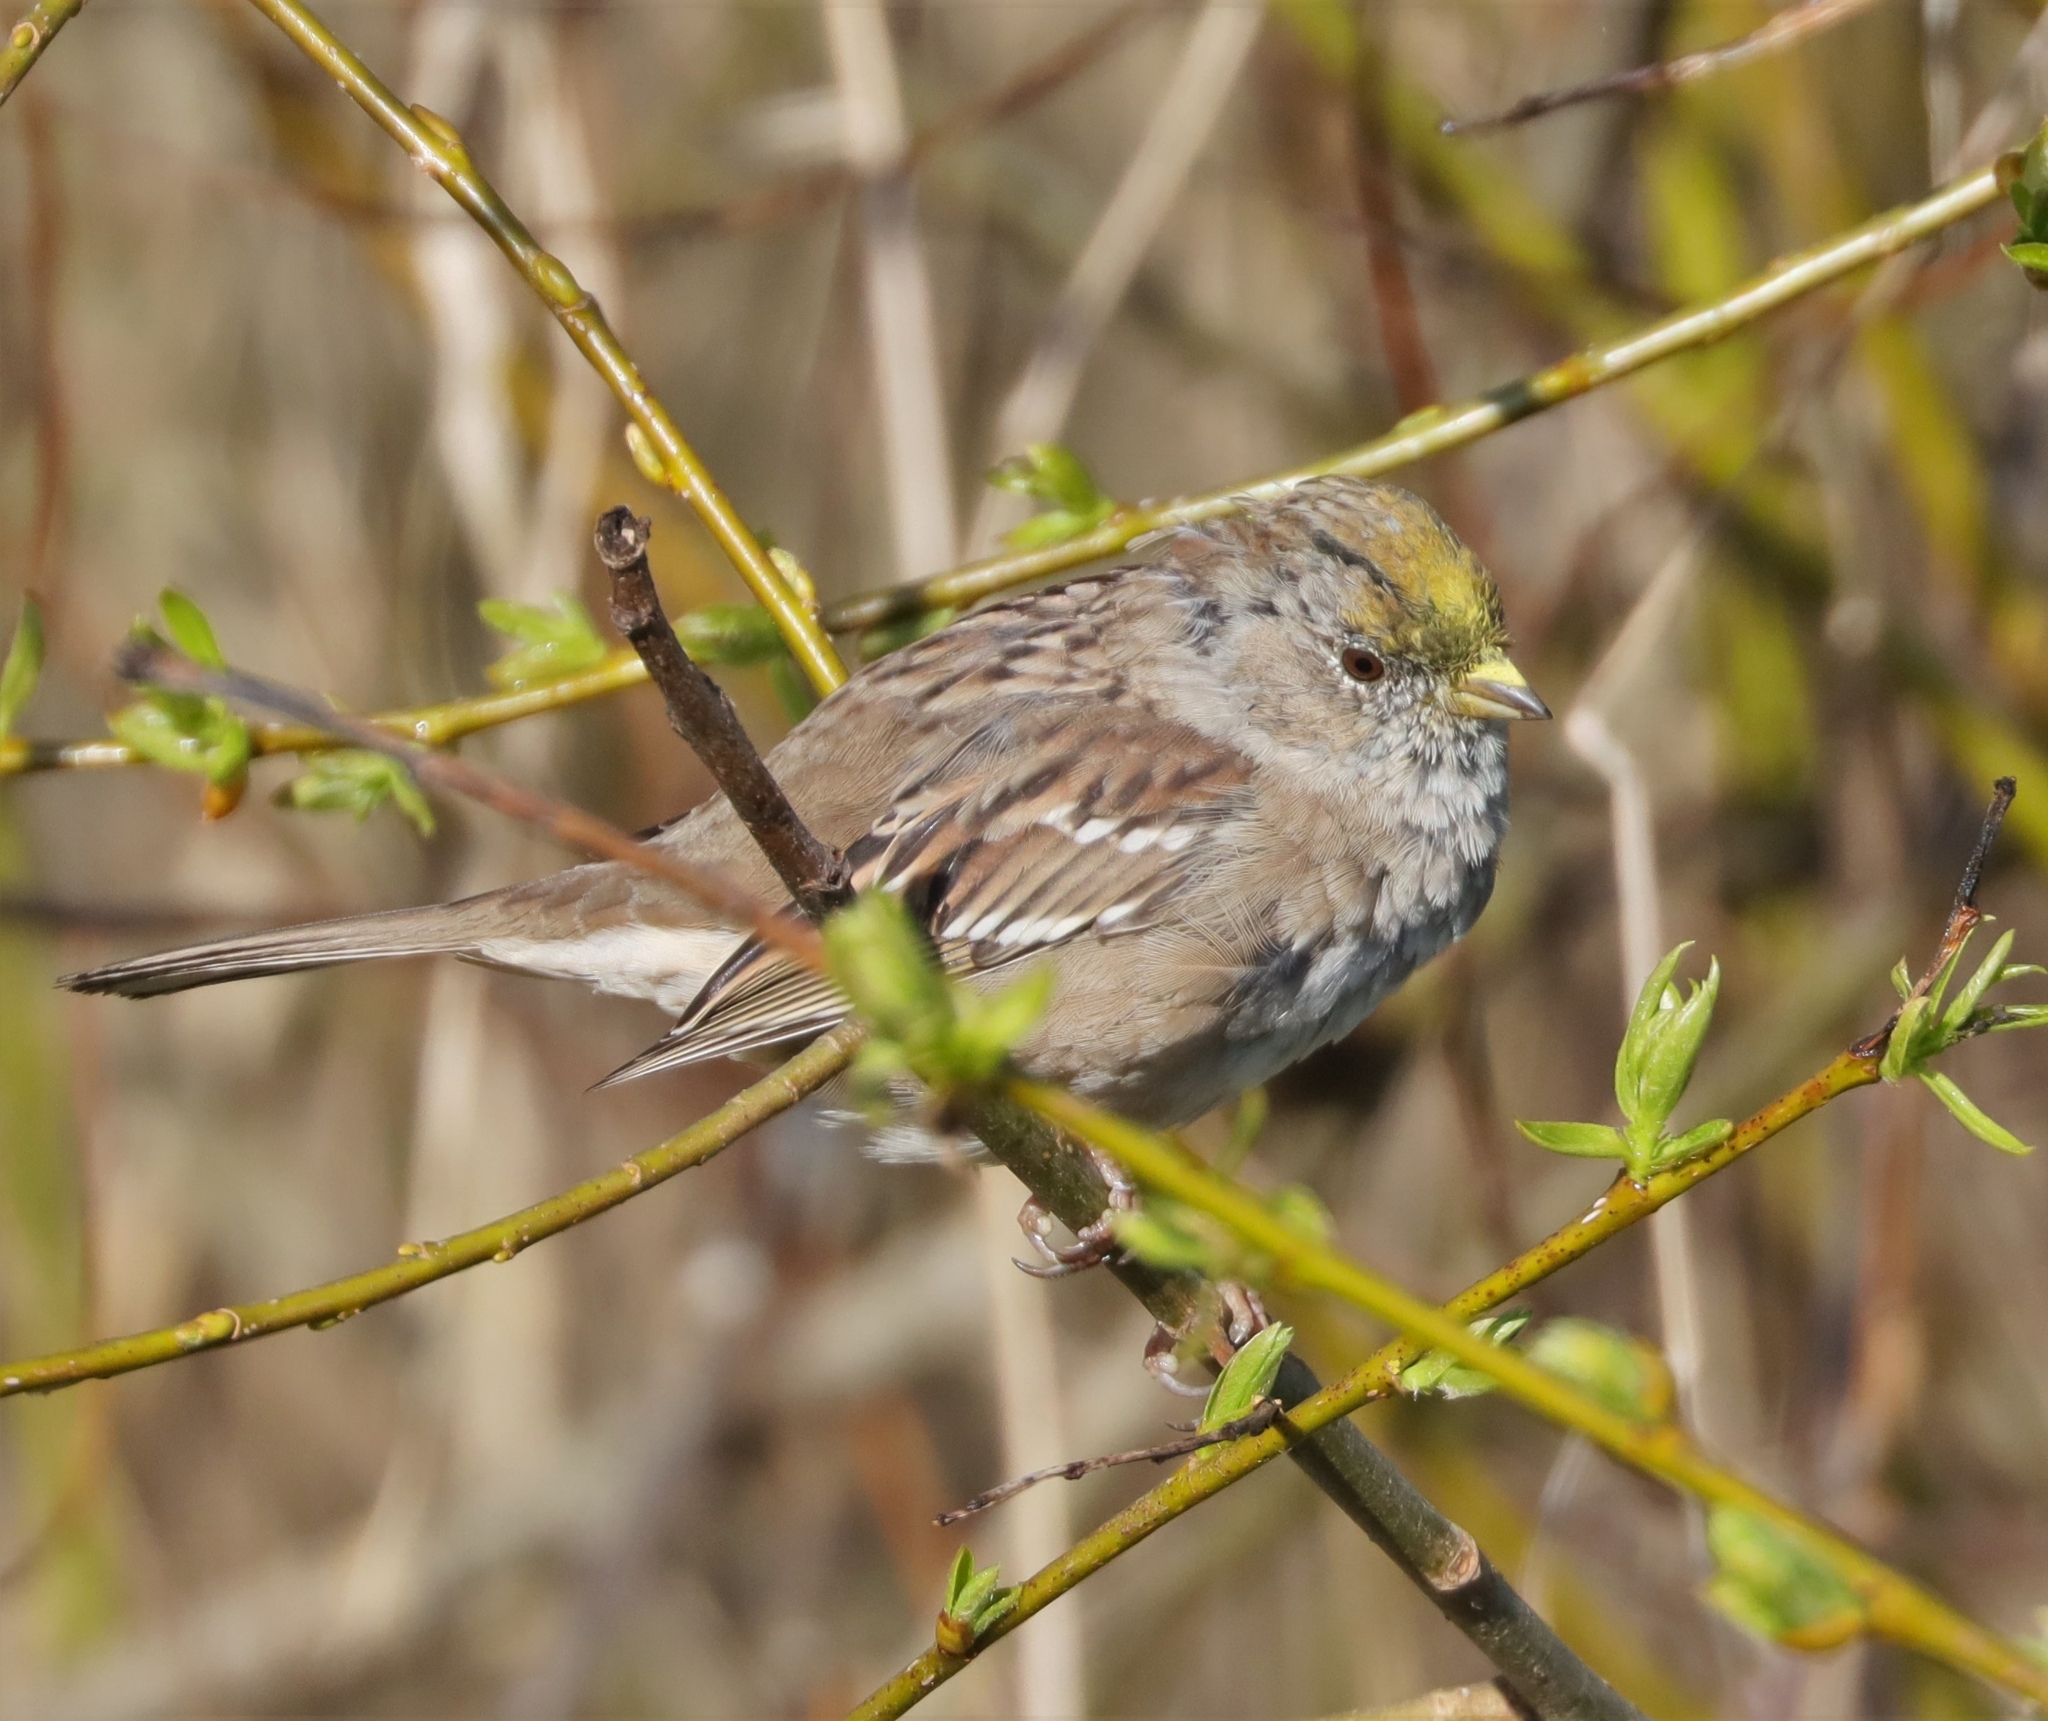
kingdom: Animalia
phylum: Chordata
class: Aves
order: Passeriformes
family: Passerellidae
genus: Zonotrichia
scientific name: Zonotrichia atricapilla
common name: Golden-crowned sparrow
